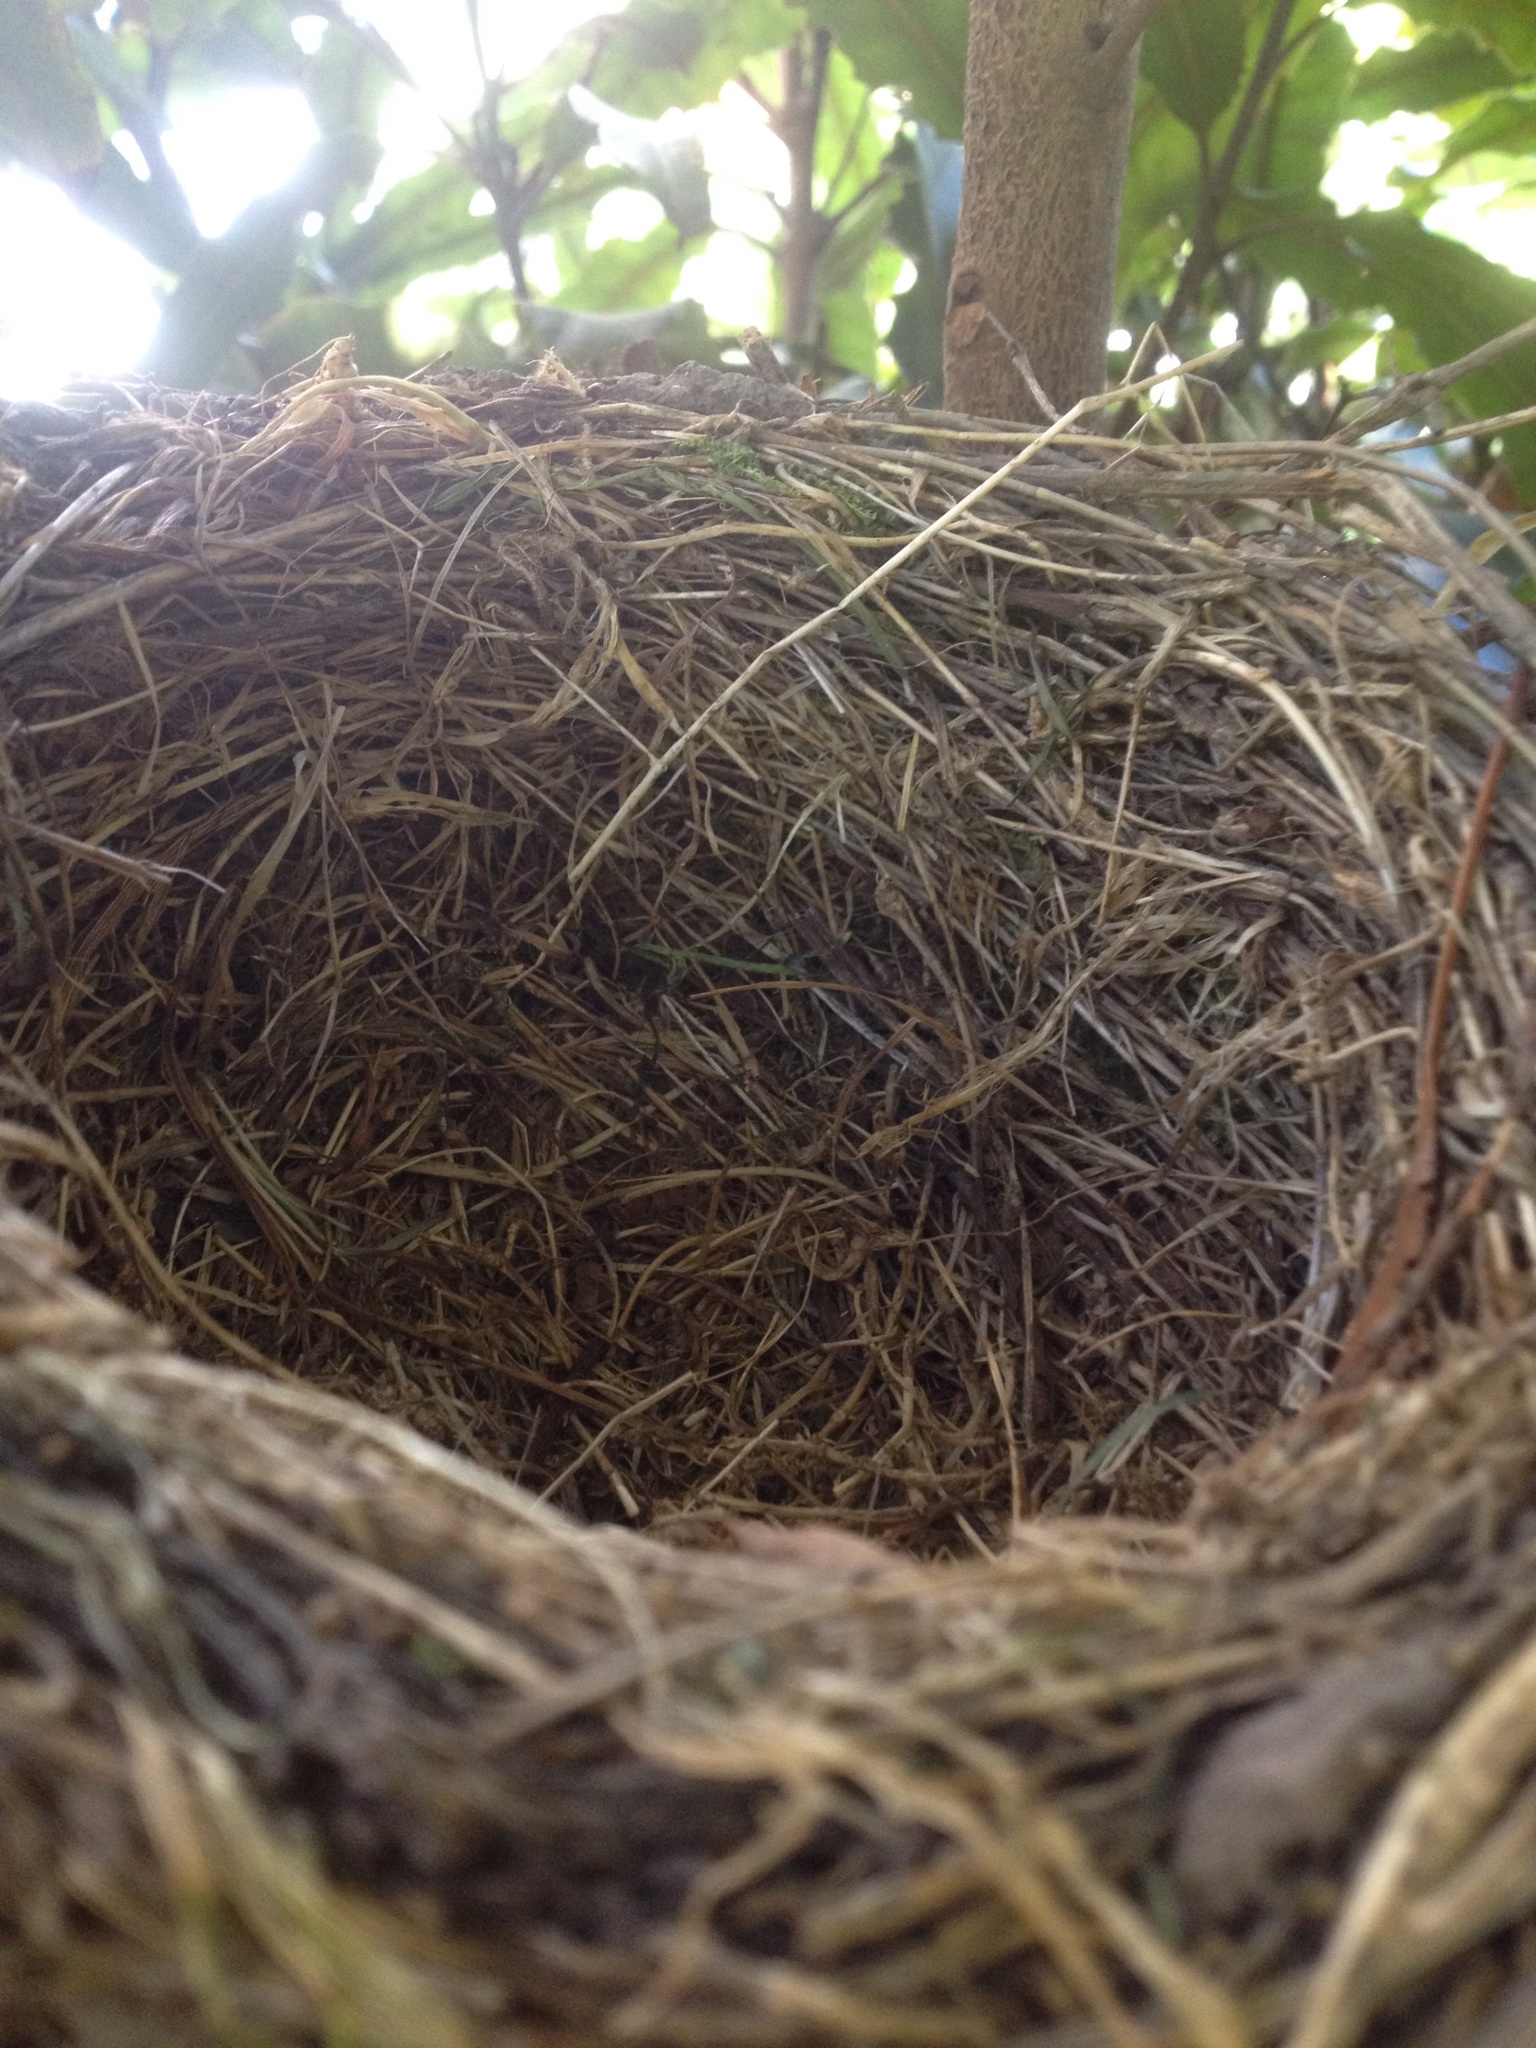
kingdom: Animalia
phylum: Chordata
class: Aves
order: Passeriformes
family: Turdidae
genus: Turdus
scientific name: Turdus merula
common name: Common blackbird
